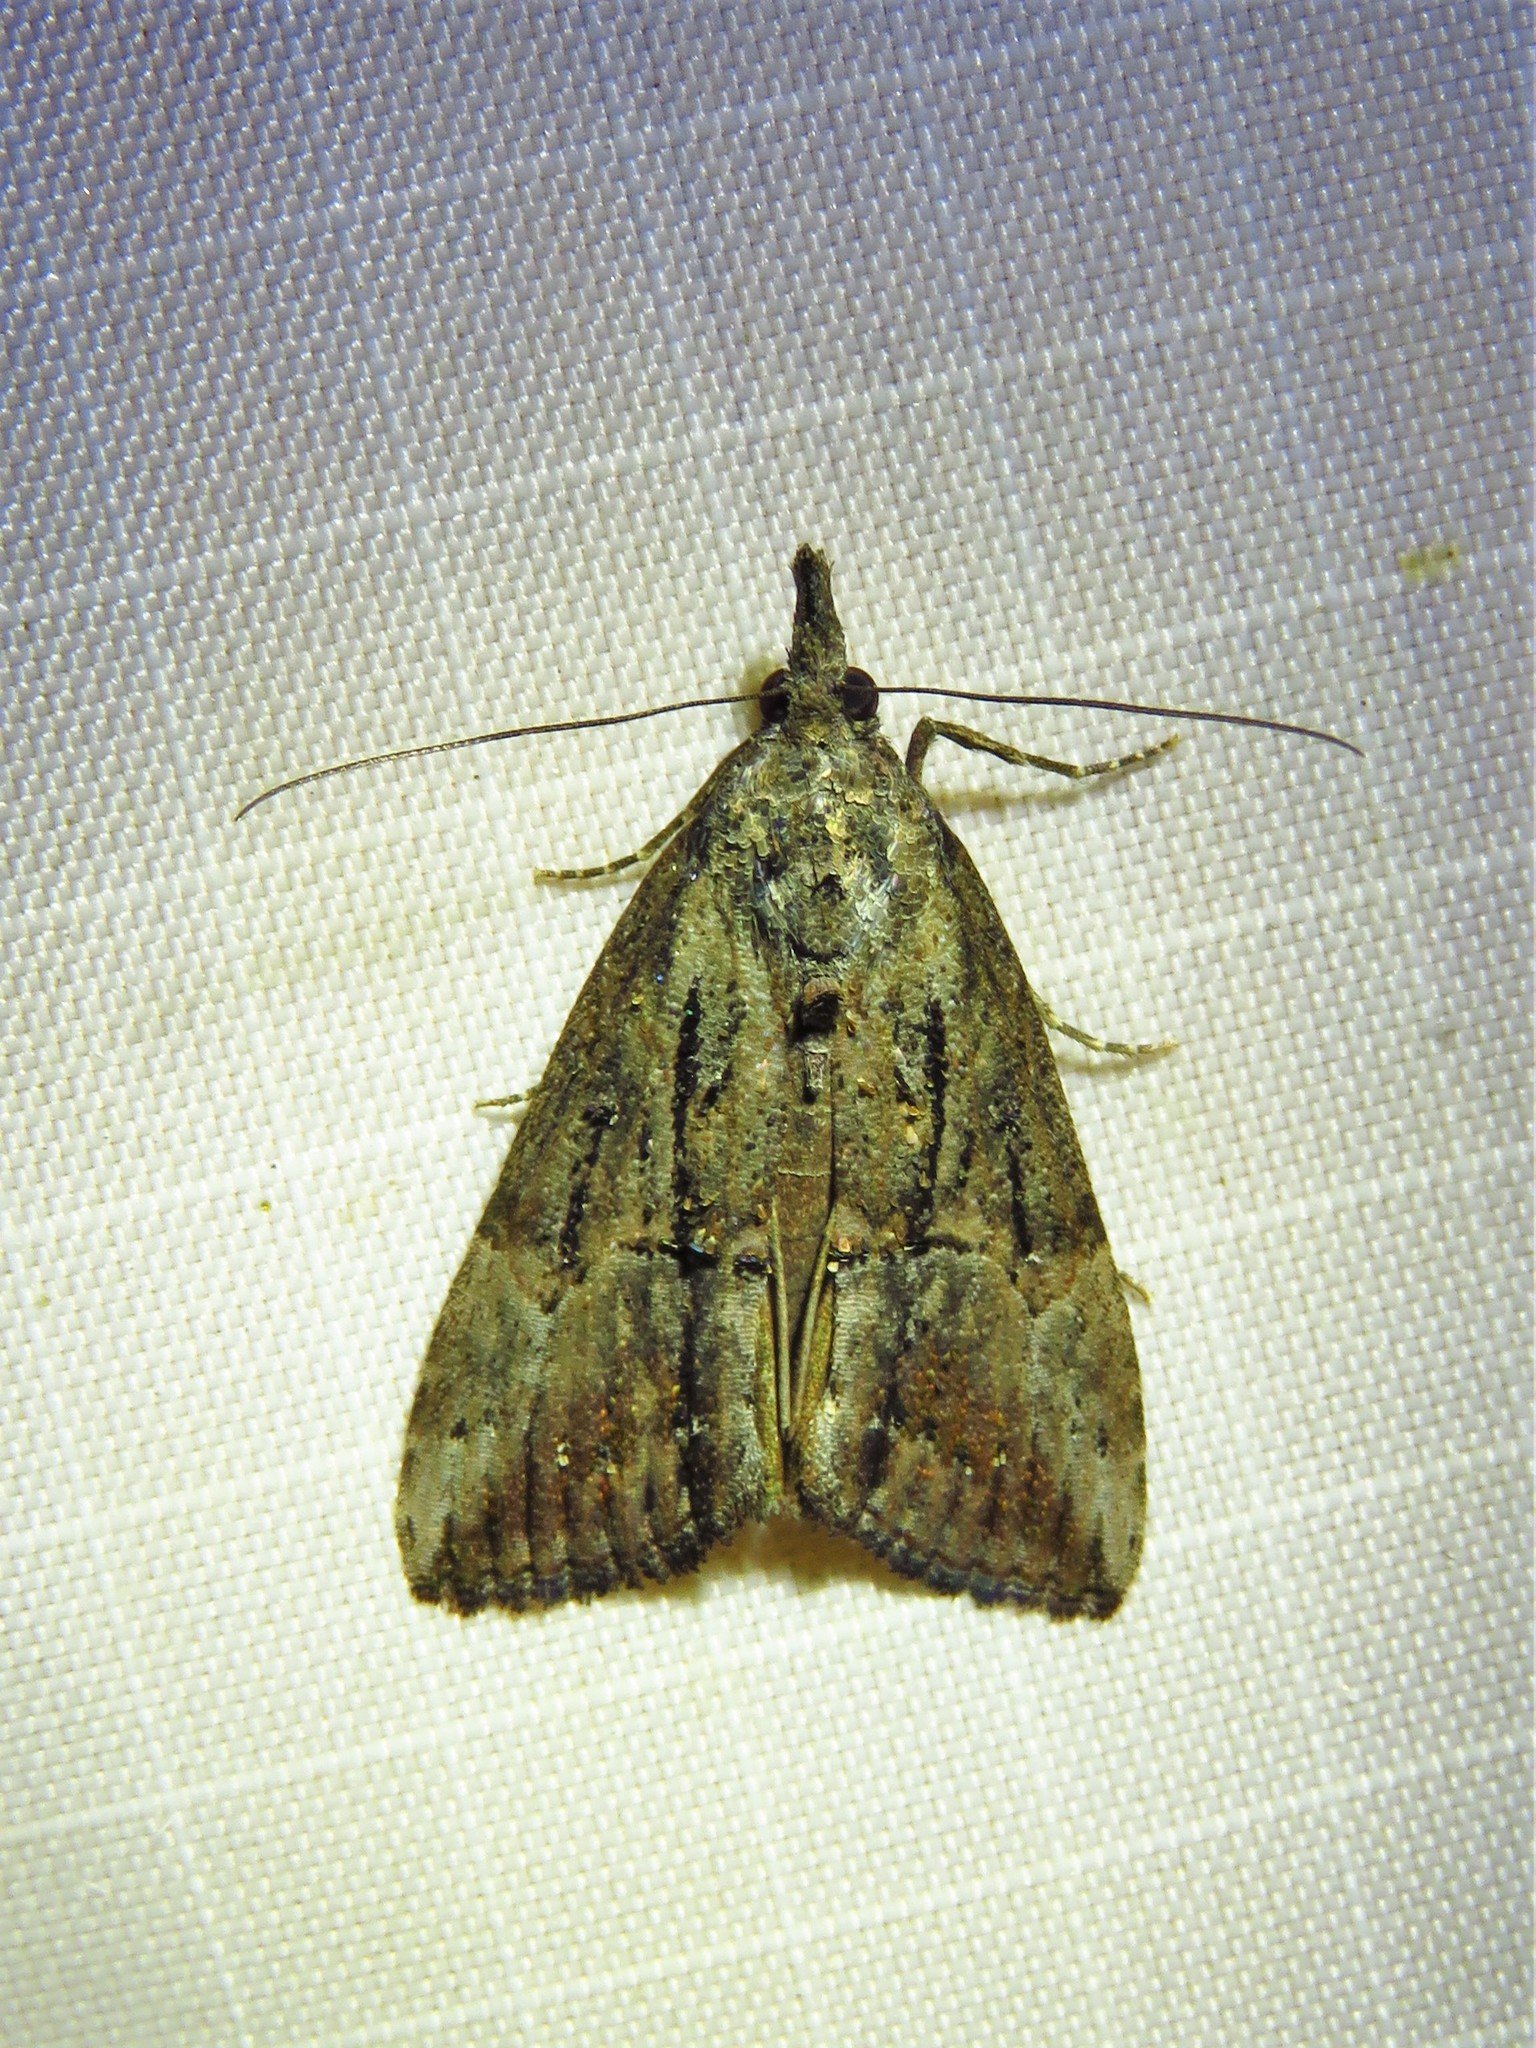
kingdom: Animalia
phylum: Arthropoda
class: Insecta
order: Lepidoptera
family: Erebidae
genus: Hypena
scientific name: Hypena scabra
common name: Green cloverworm
